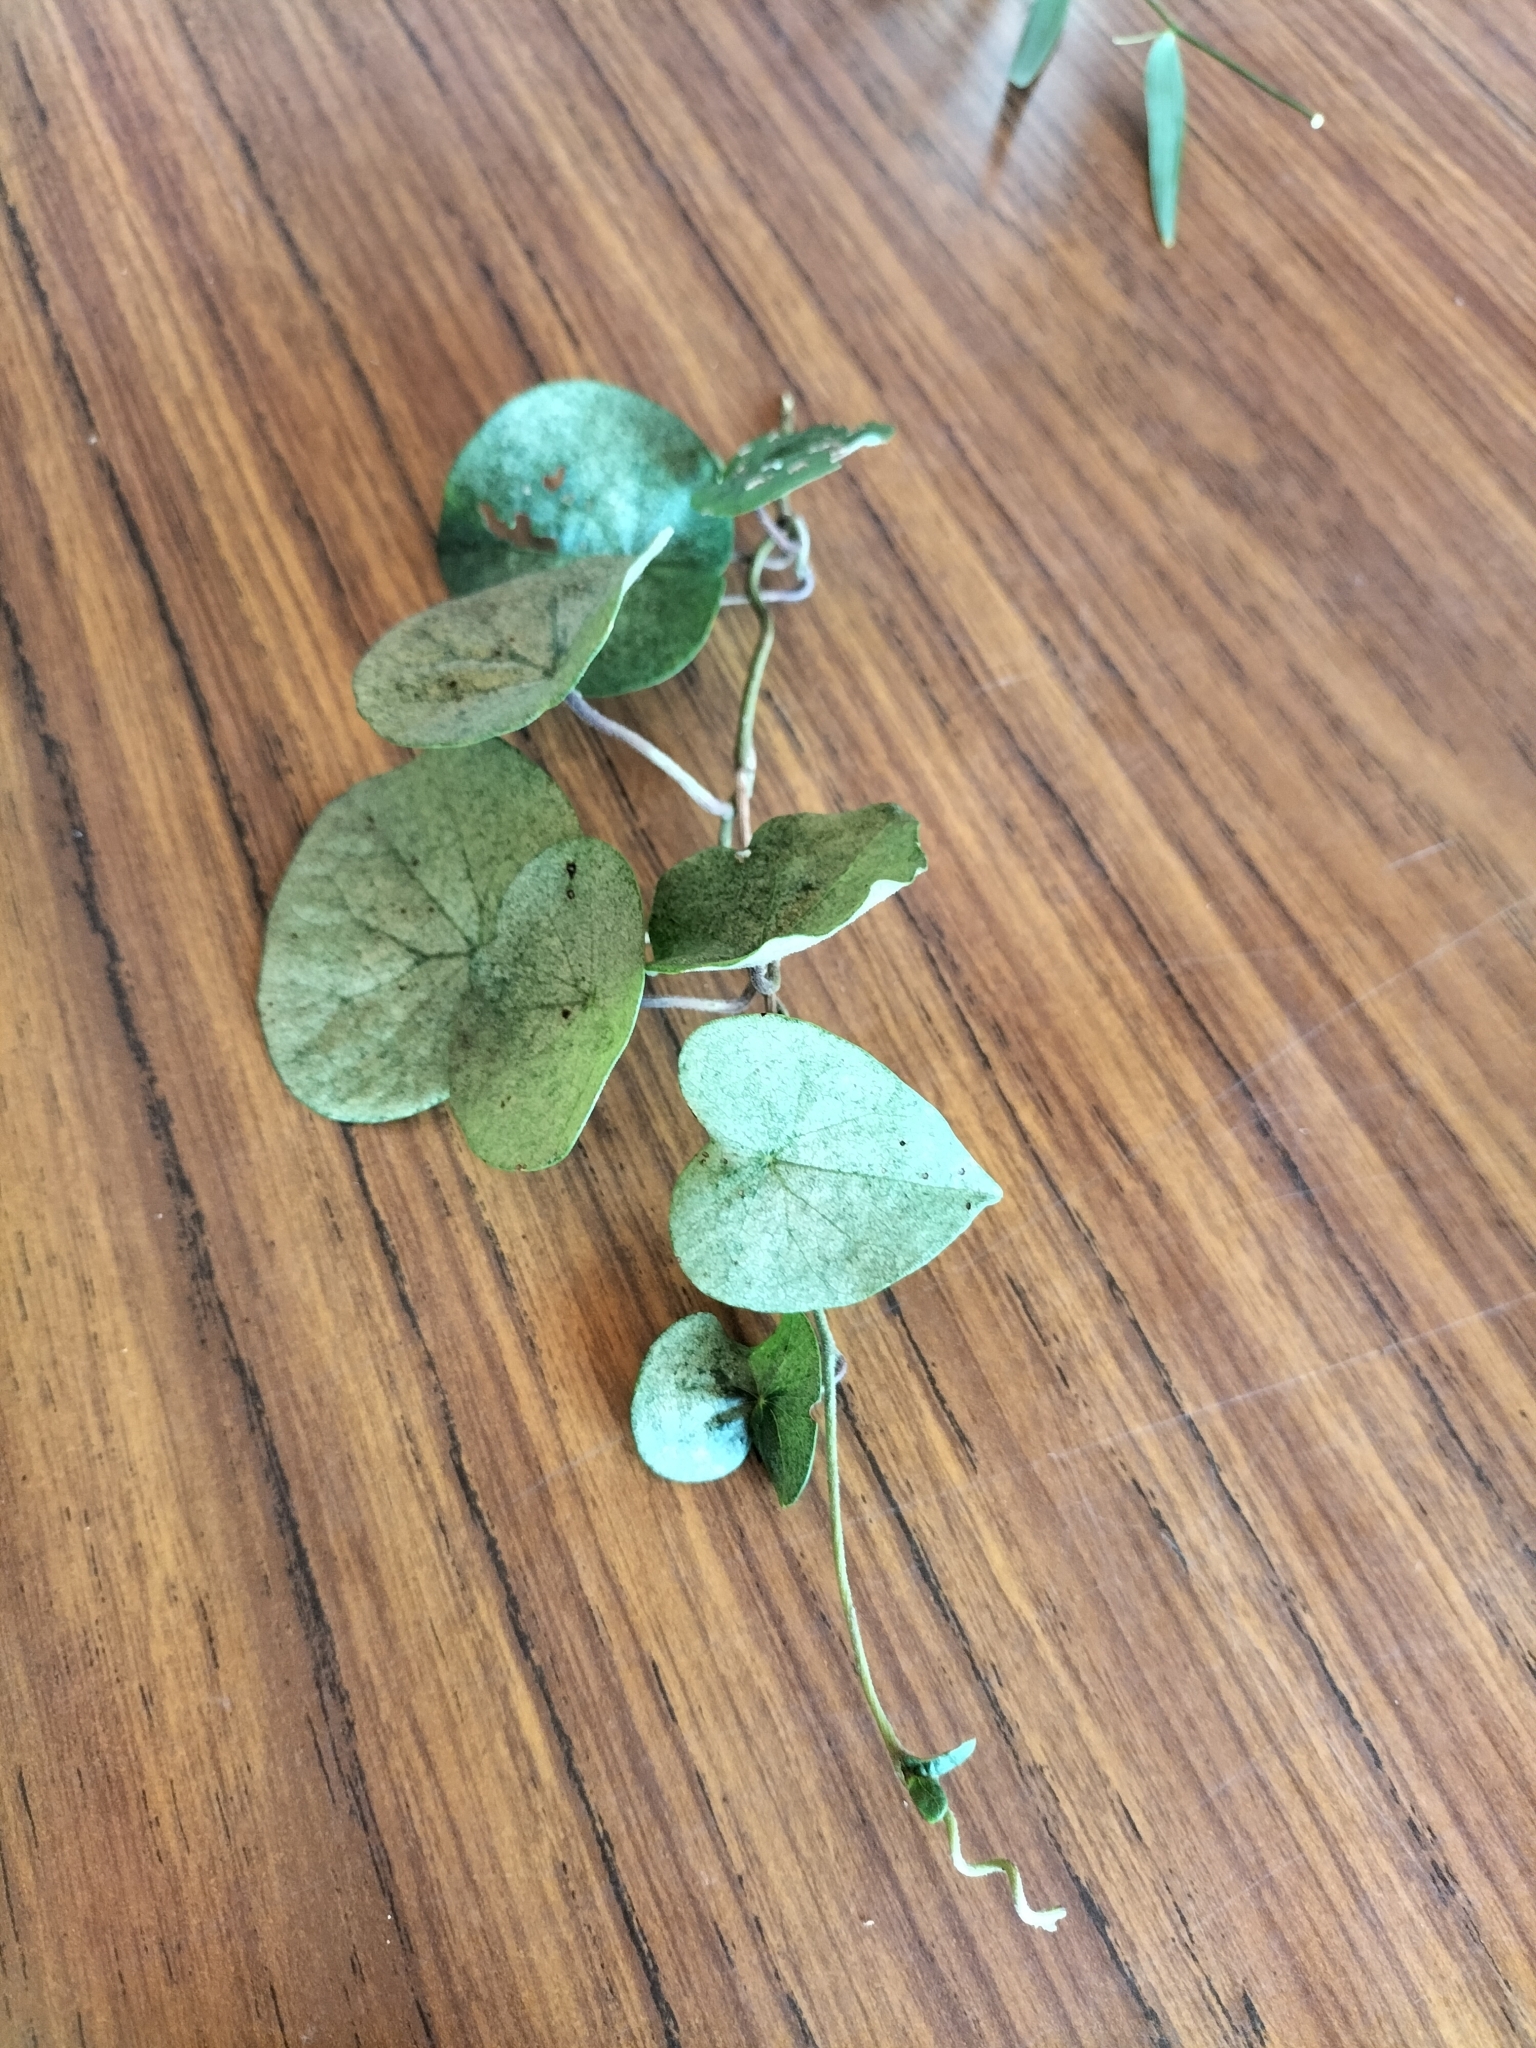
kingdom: Plantae
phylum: Tracheophyta
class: Magnoliopsida
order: Ranunculales
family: Menispermaceae
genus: Stephania
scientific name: Stephania japonica
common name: Snake vine
